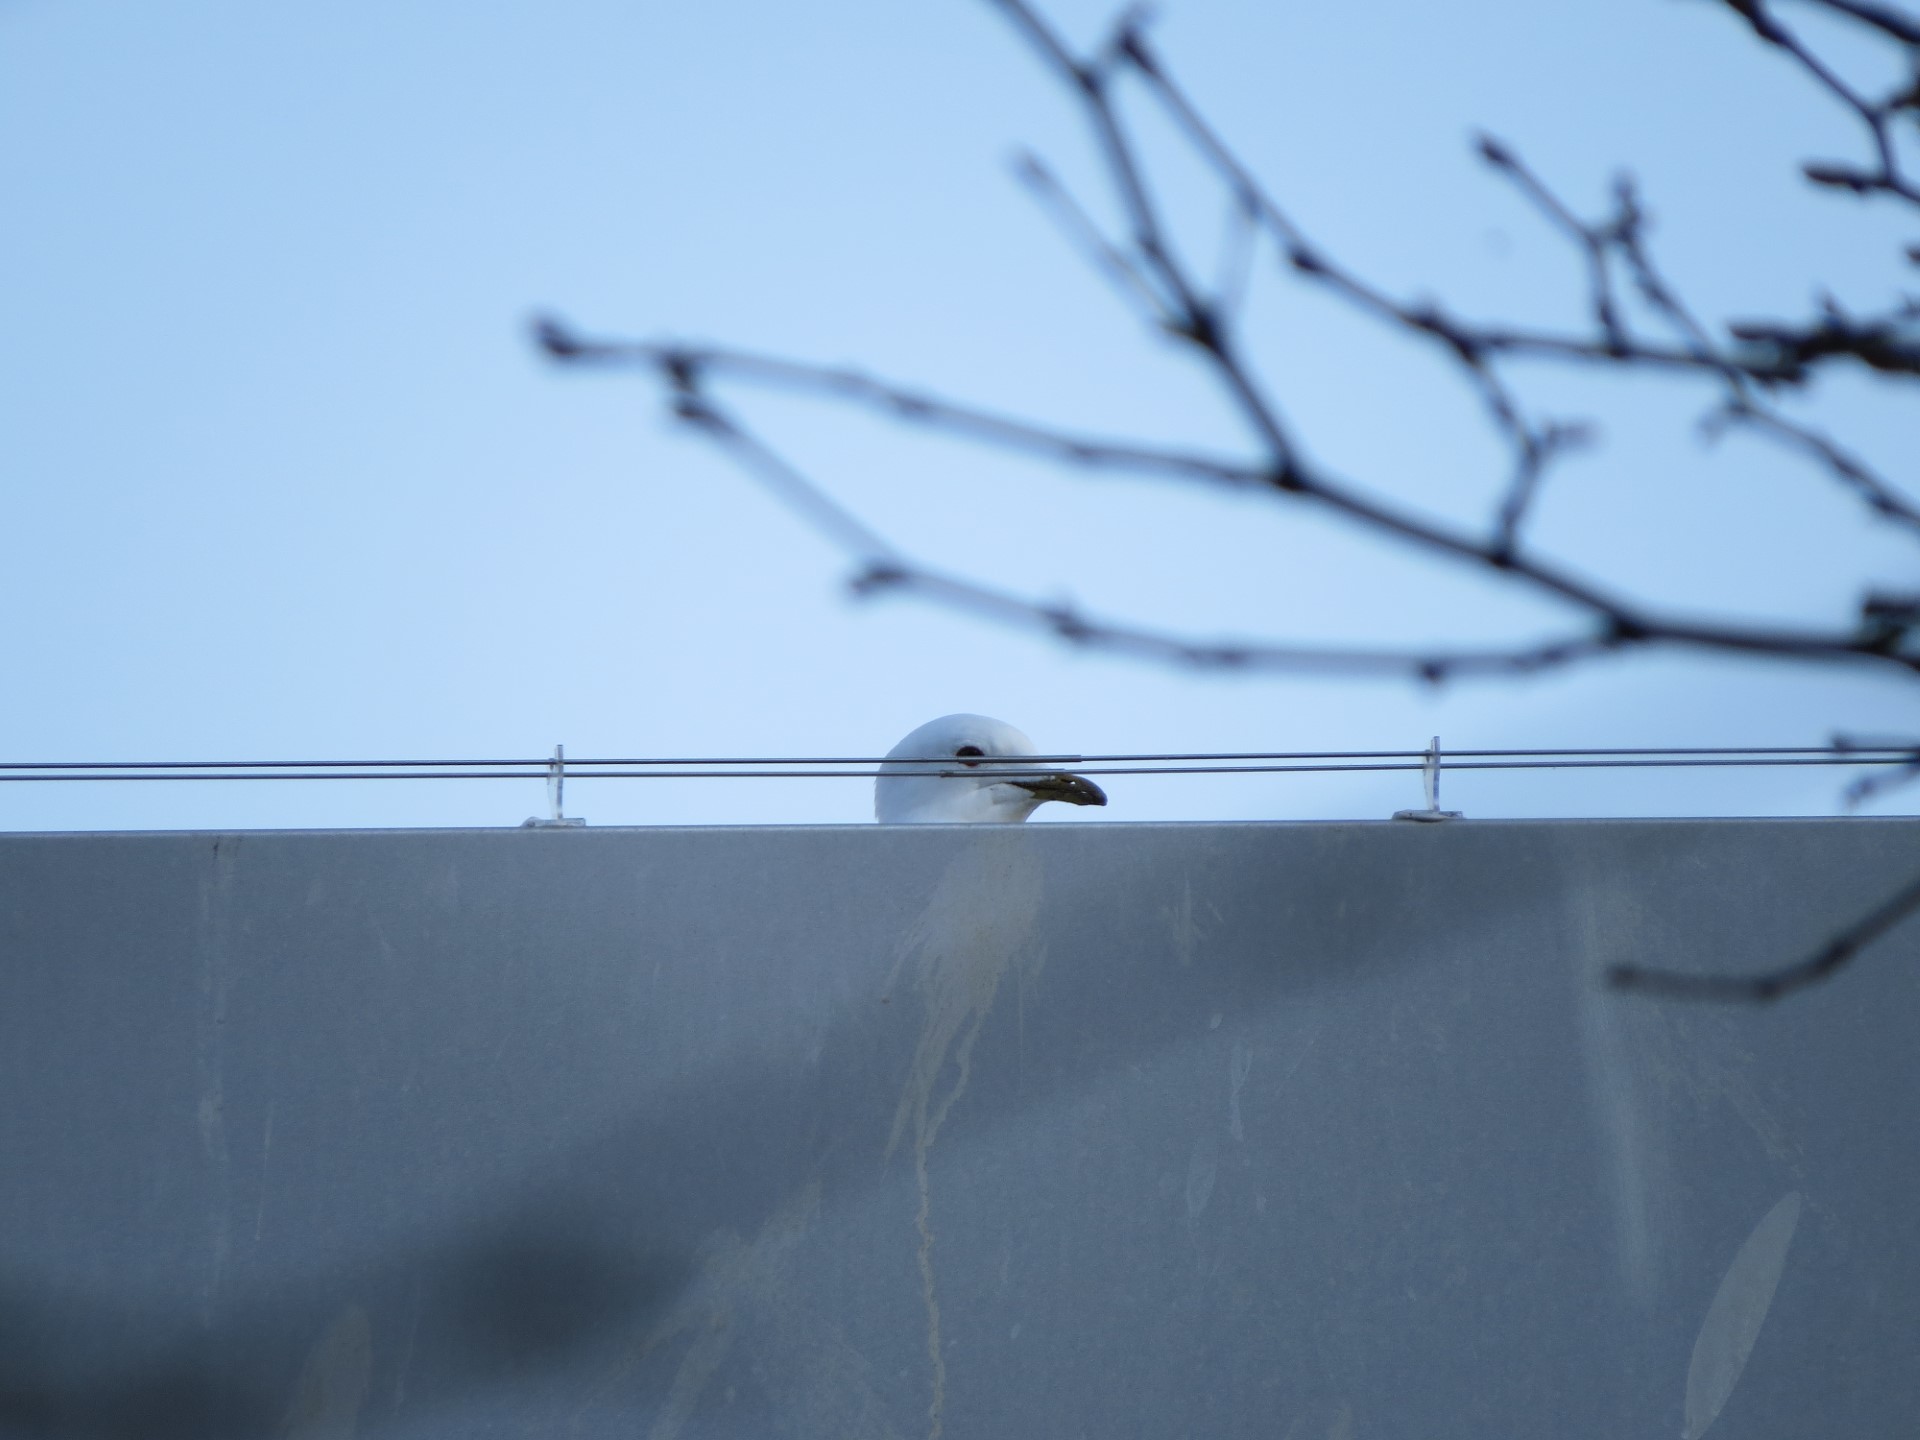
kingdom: Animalia
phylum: Chordata
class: Aves
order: Charadriiformes
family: Laridae
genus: Larus
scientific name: Larus canus
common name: Mew gull
